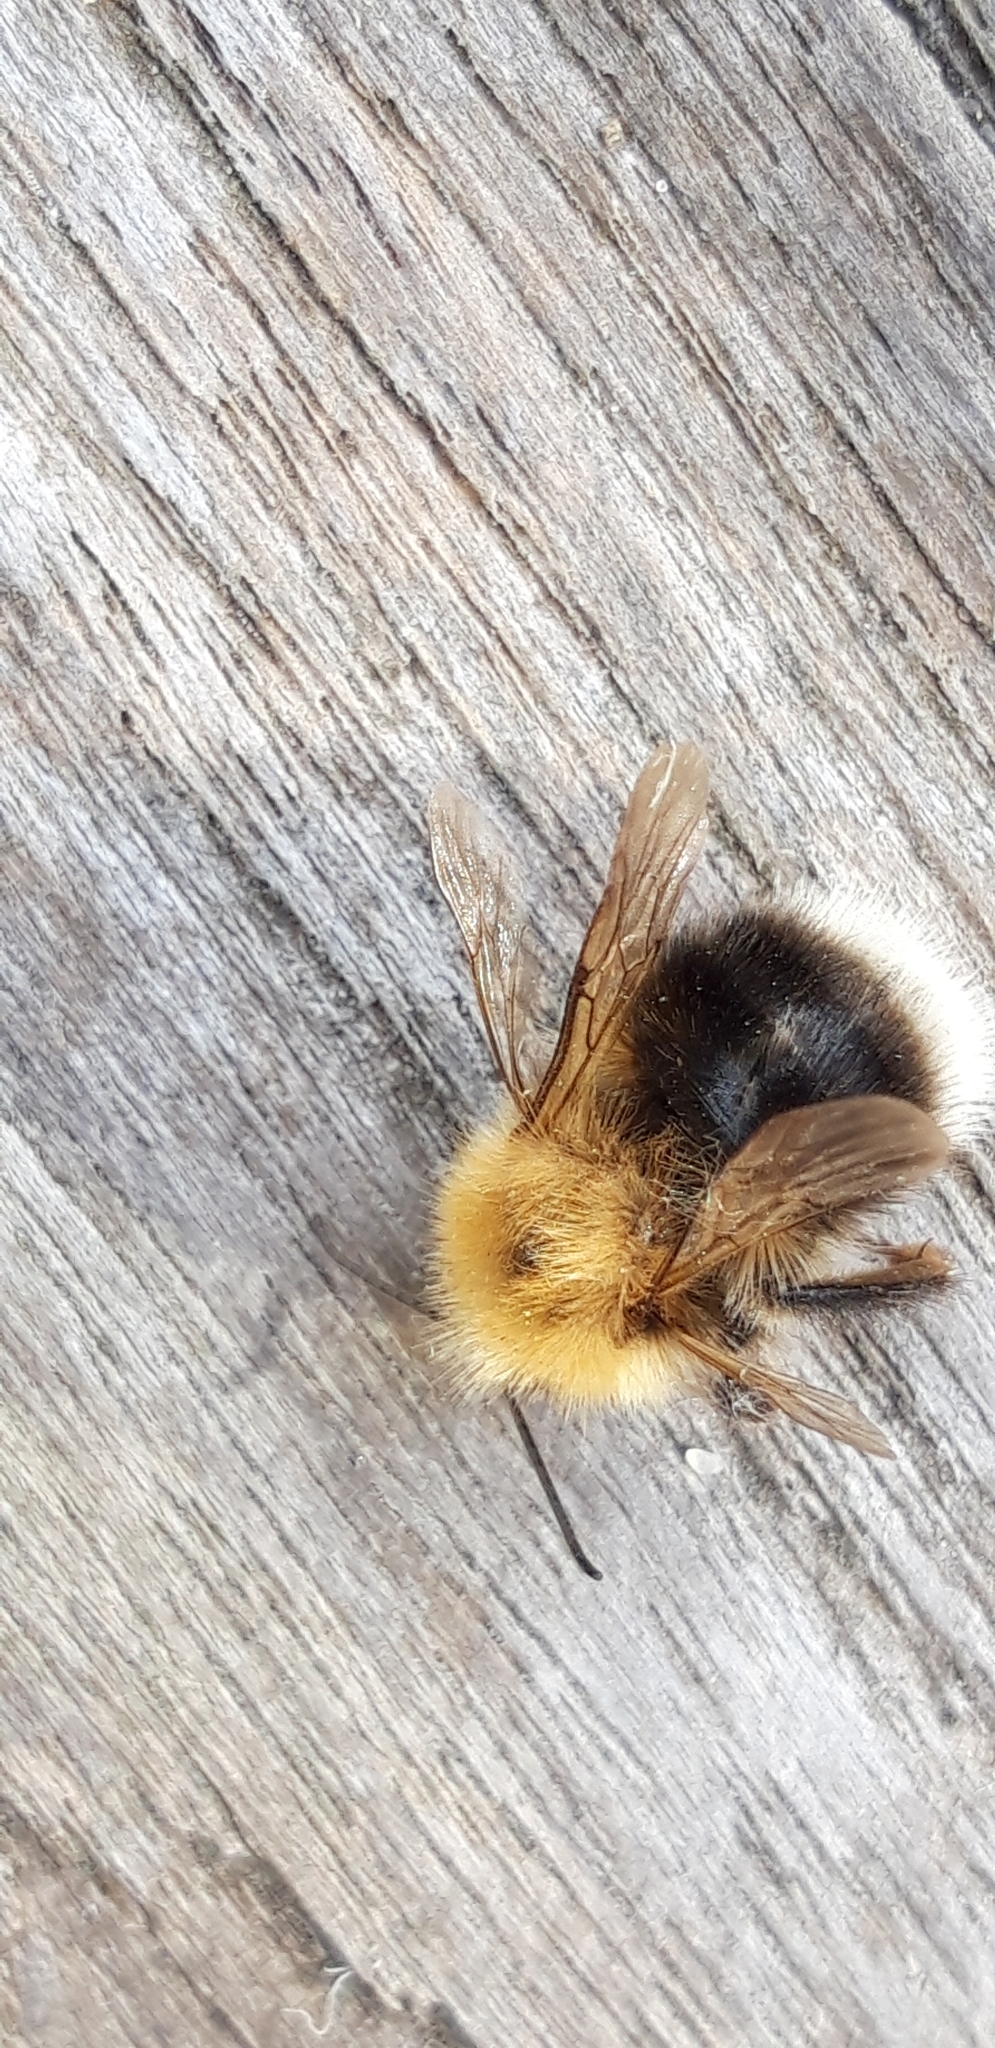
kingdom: Animalia
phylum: Arthropoda
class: Insecta
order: Hymenoptera
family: Apidae
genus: Bombus
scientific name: Bombus hypnorum
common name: New garden bumblebee
